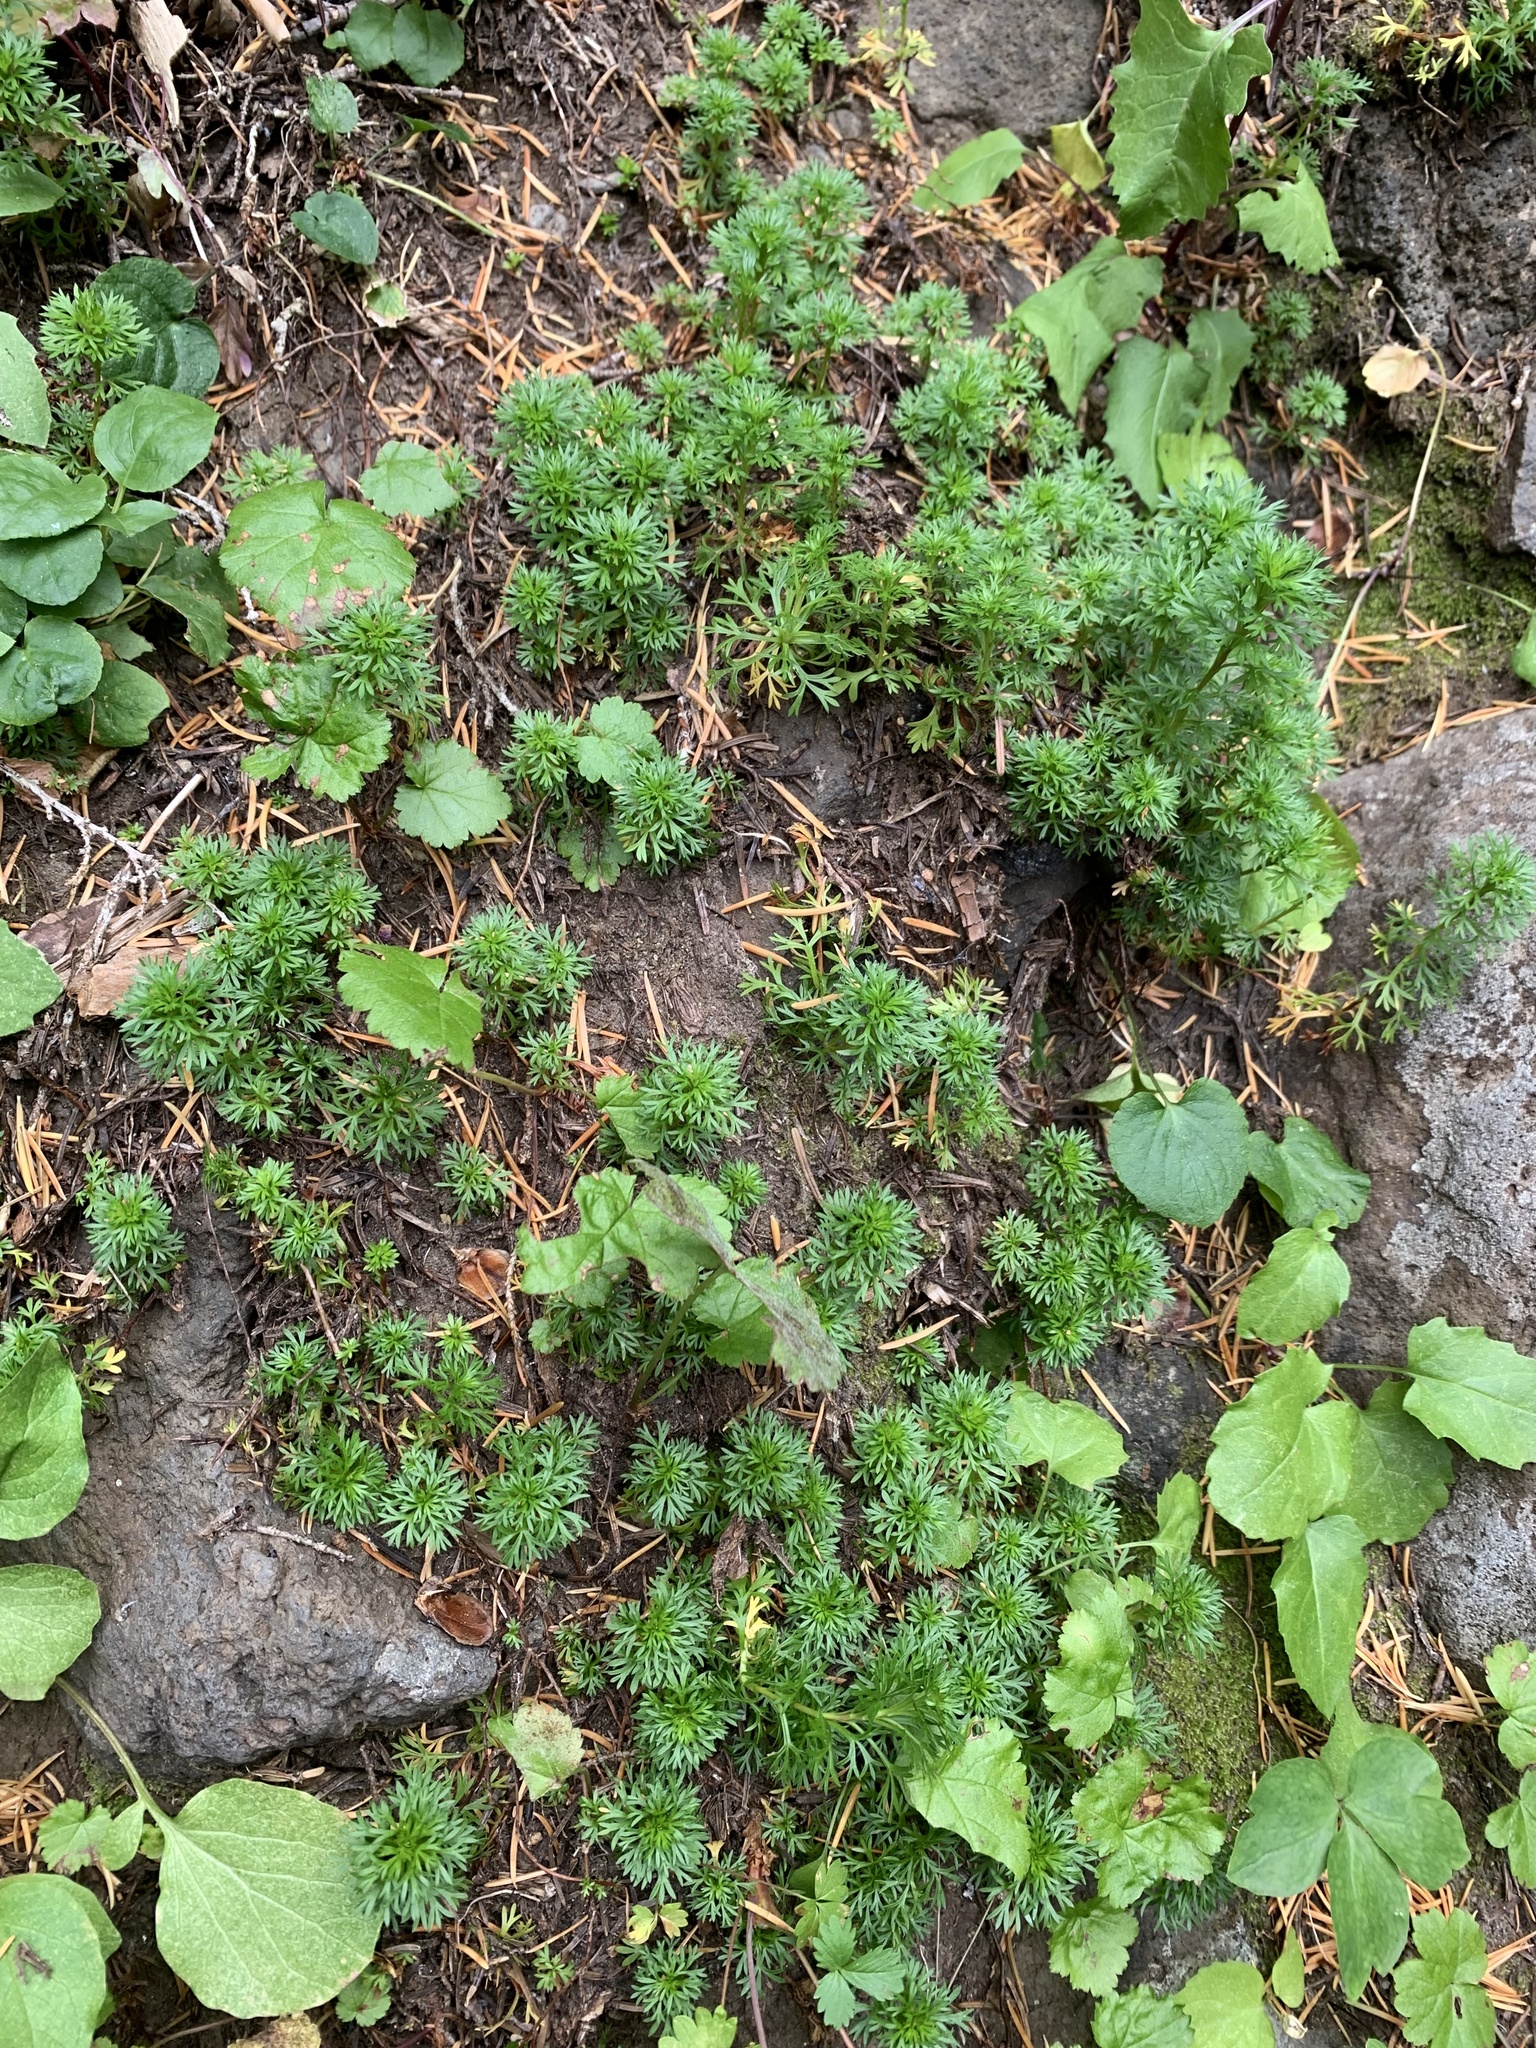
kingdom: Plantae
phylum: Tracheophyta
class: Magnoliopsida
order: Rosales
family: Rosaceae
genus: Luetkea
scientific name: Luetkea pectinata
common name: Partridgefoot
